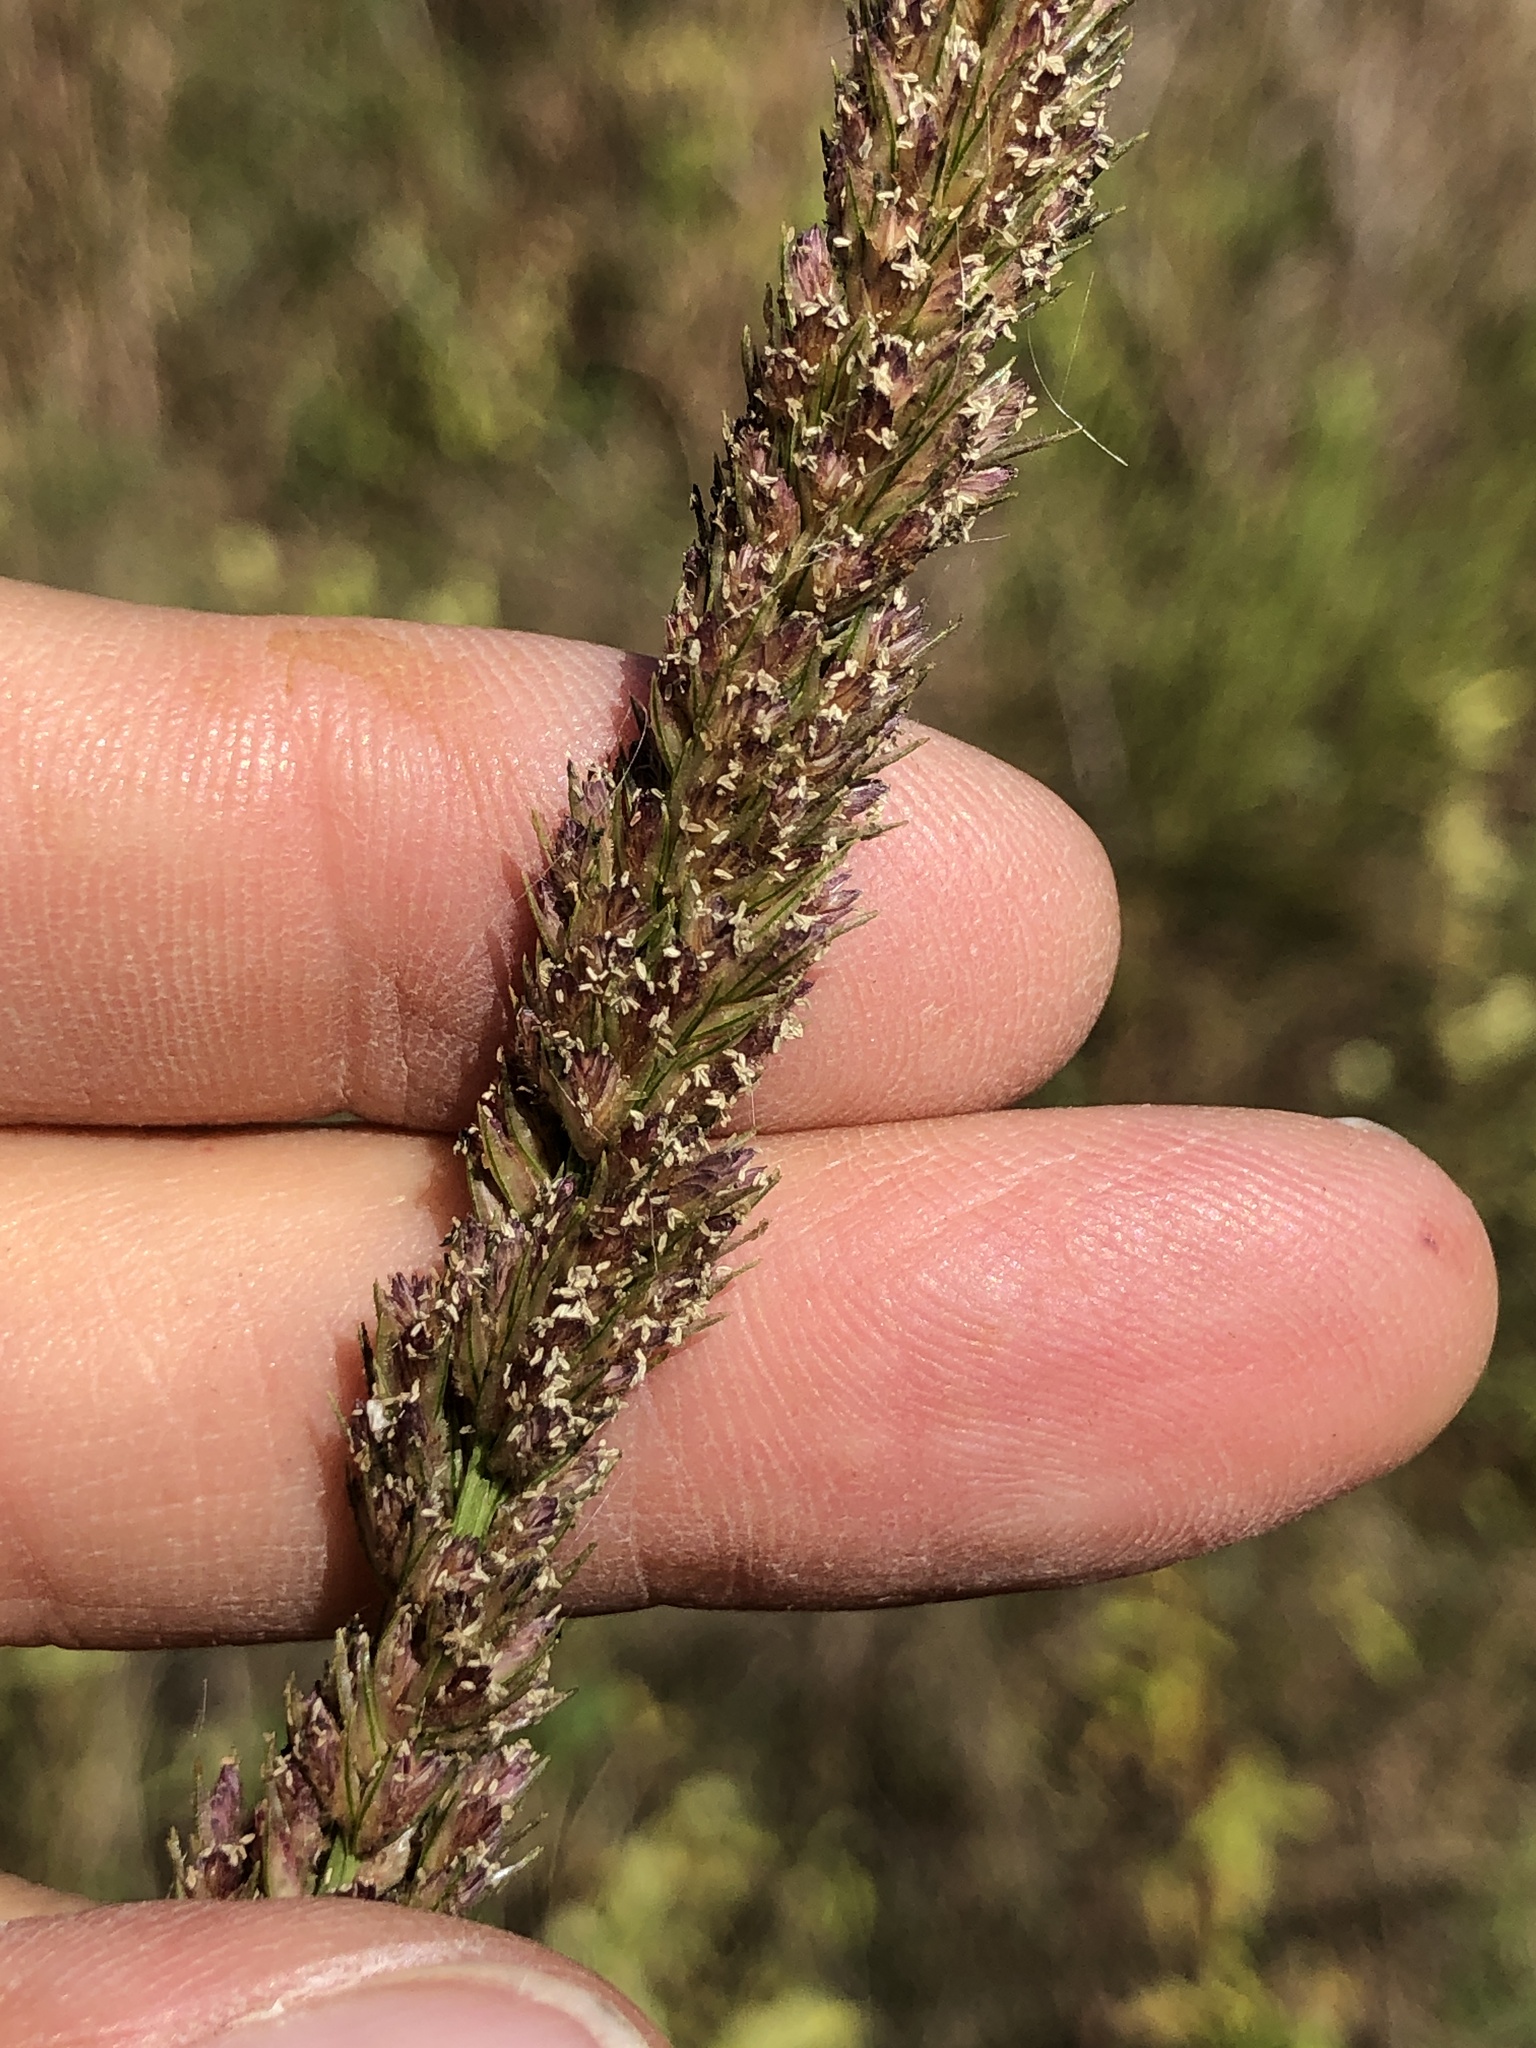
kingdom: Plantae
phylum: Tracheophyta
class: Liliopsida
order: Poales
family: Poaceae
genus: Tridens
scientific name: Tridens strictus
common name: Long-spike tridens
